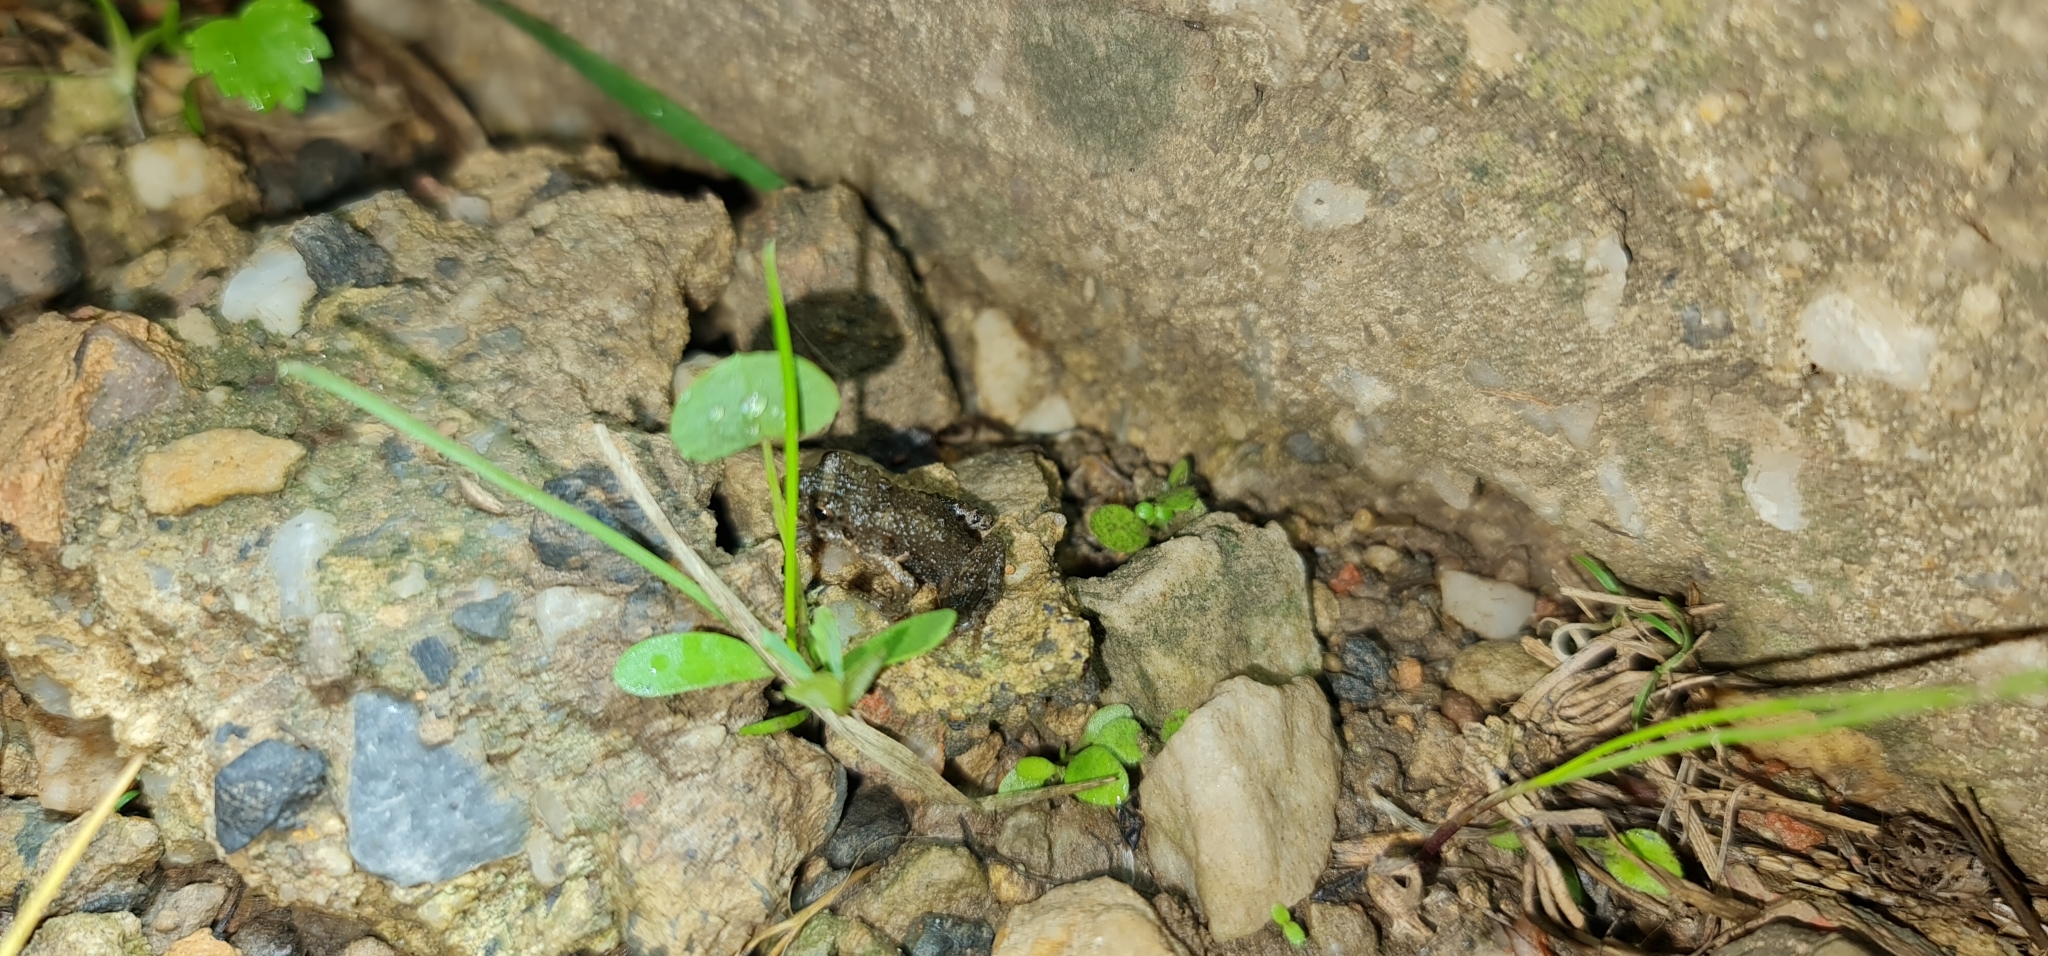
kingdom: Animalia
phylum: Chordata
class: Amphibia
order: Anura
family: Myobatrachidae
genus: Crinia
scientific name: Crinia signifera
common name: Brown froglet
